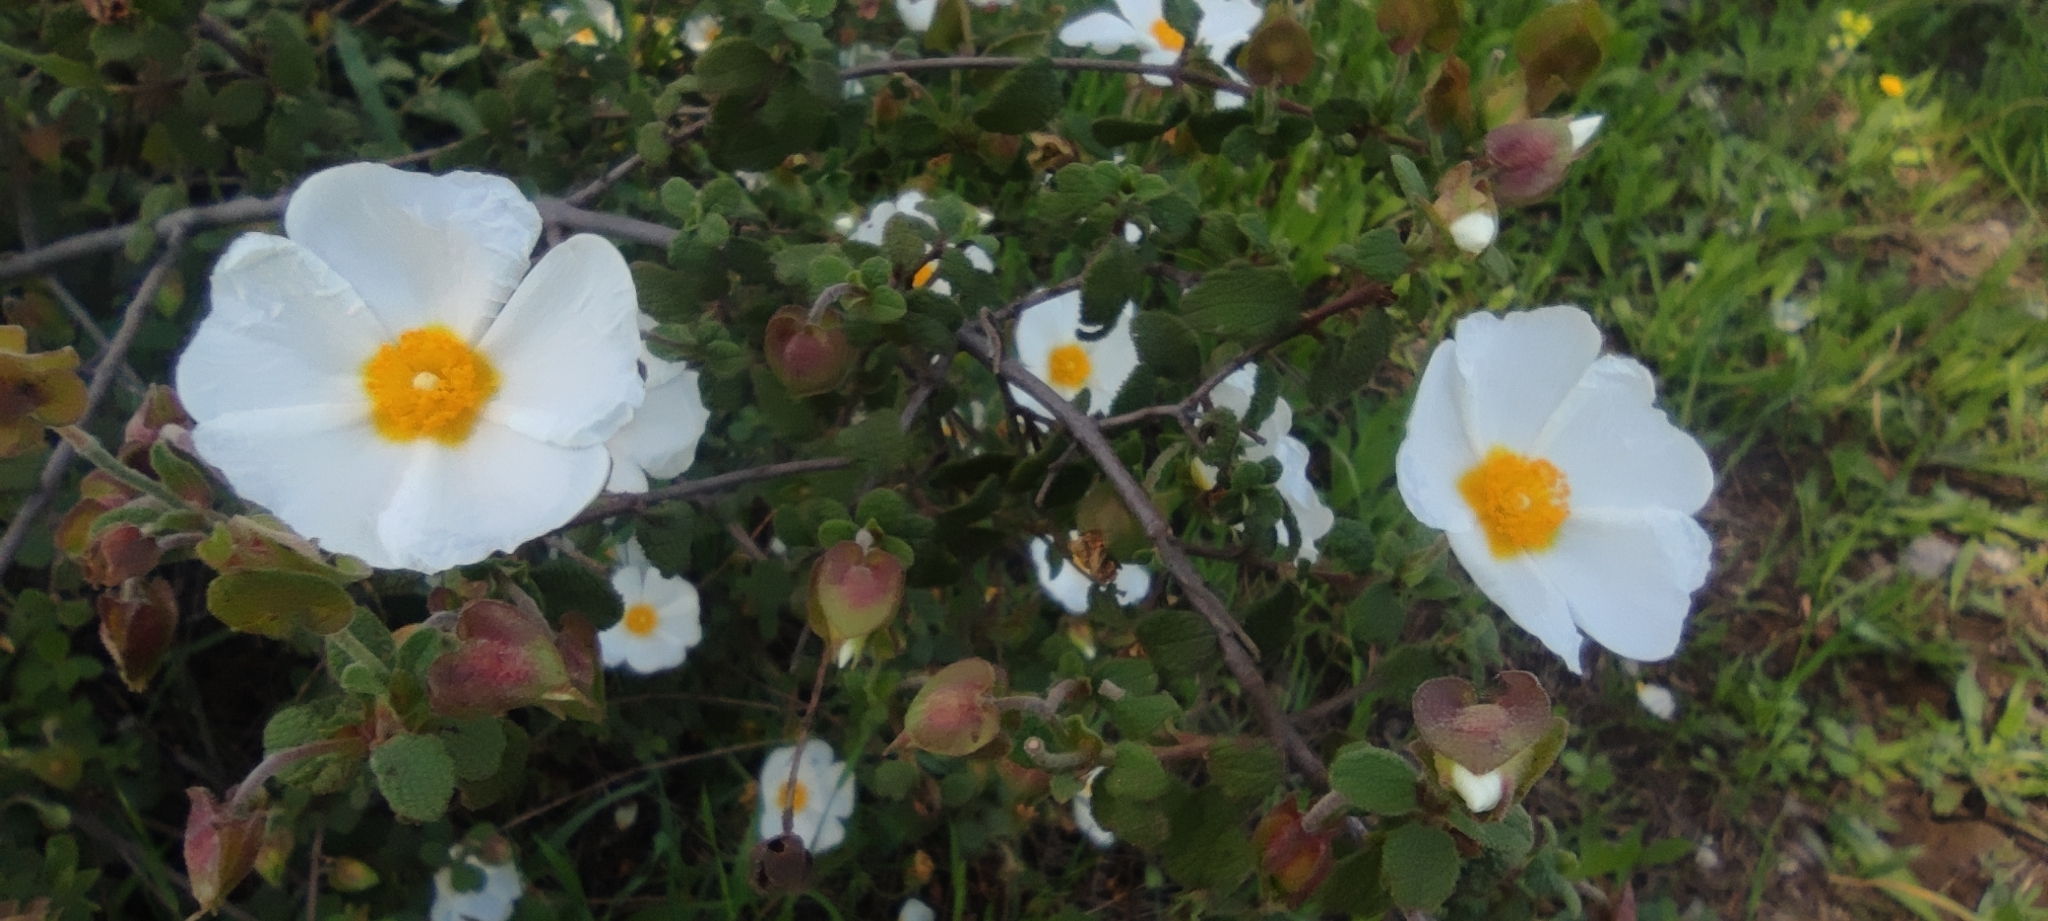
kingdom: Plantae
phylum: Tracheophyta
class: Magnoliopsida
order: Malvales
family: Cistaceae
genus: Cistus
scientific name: Cistus salviifolius
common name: Salvia cistus
